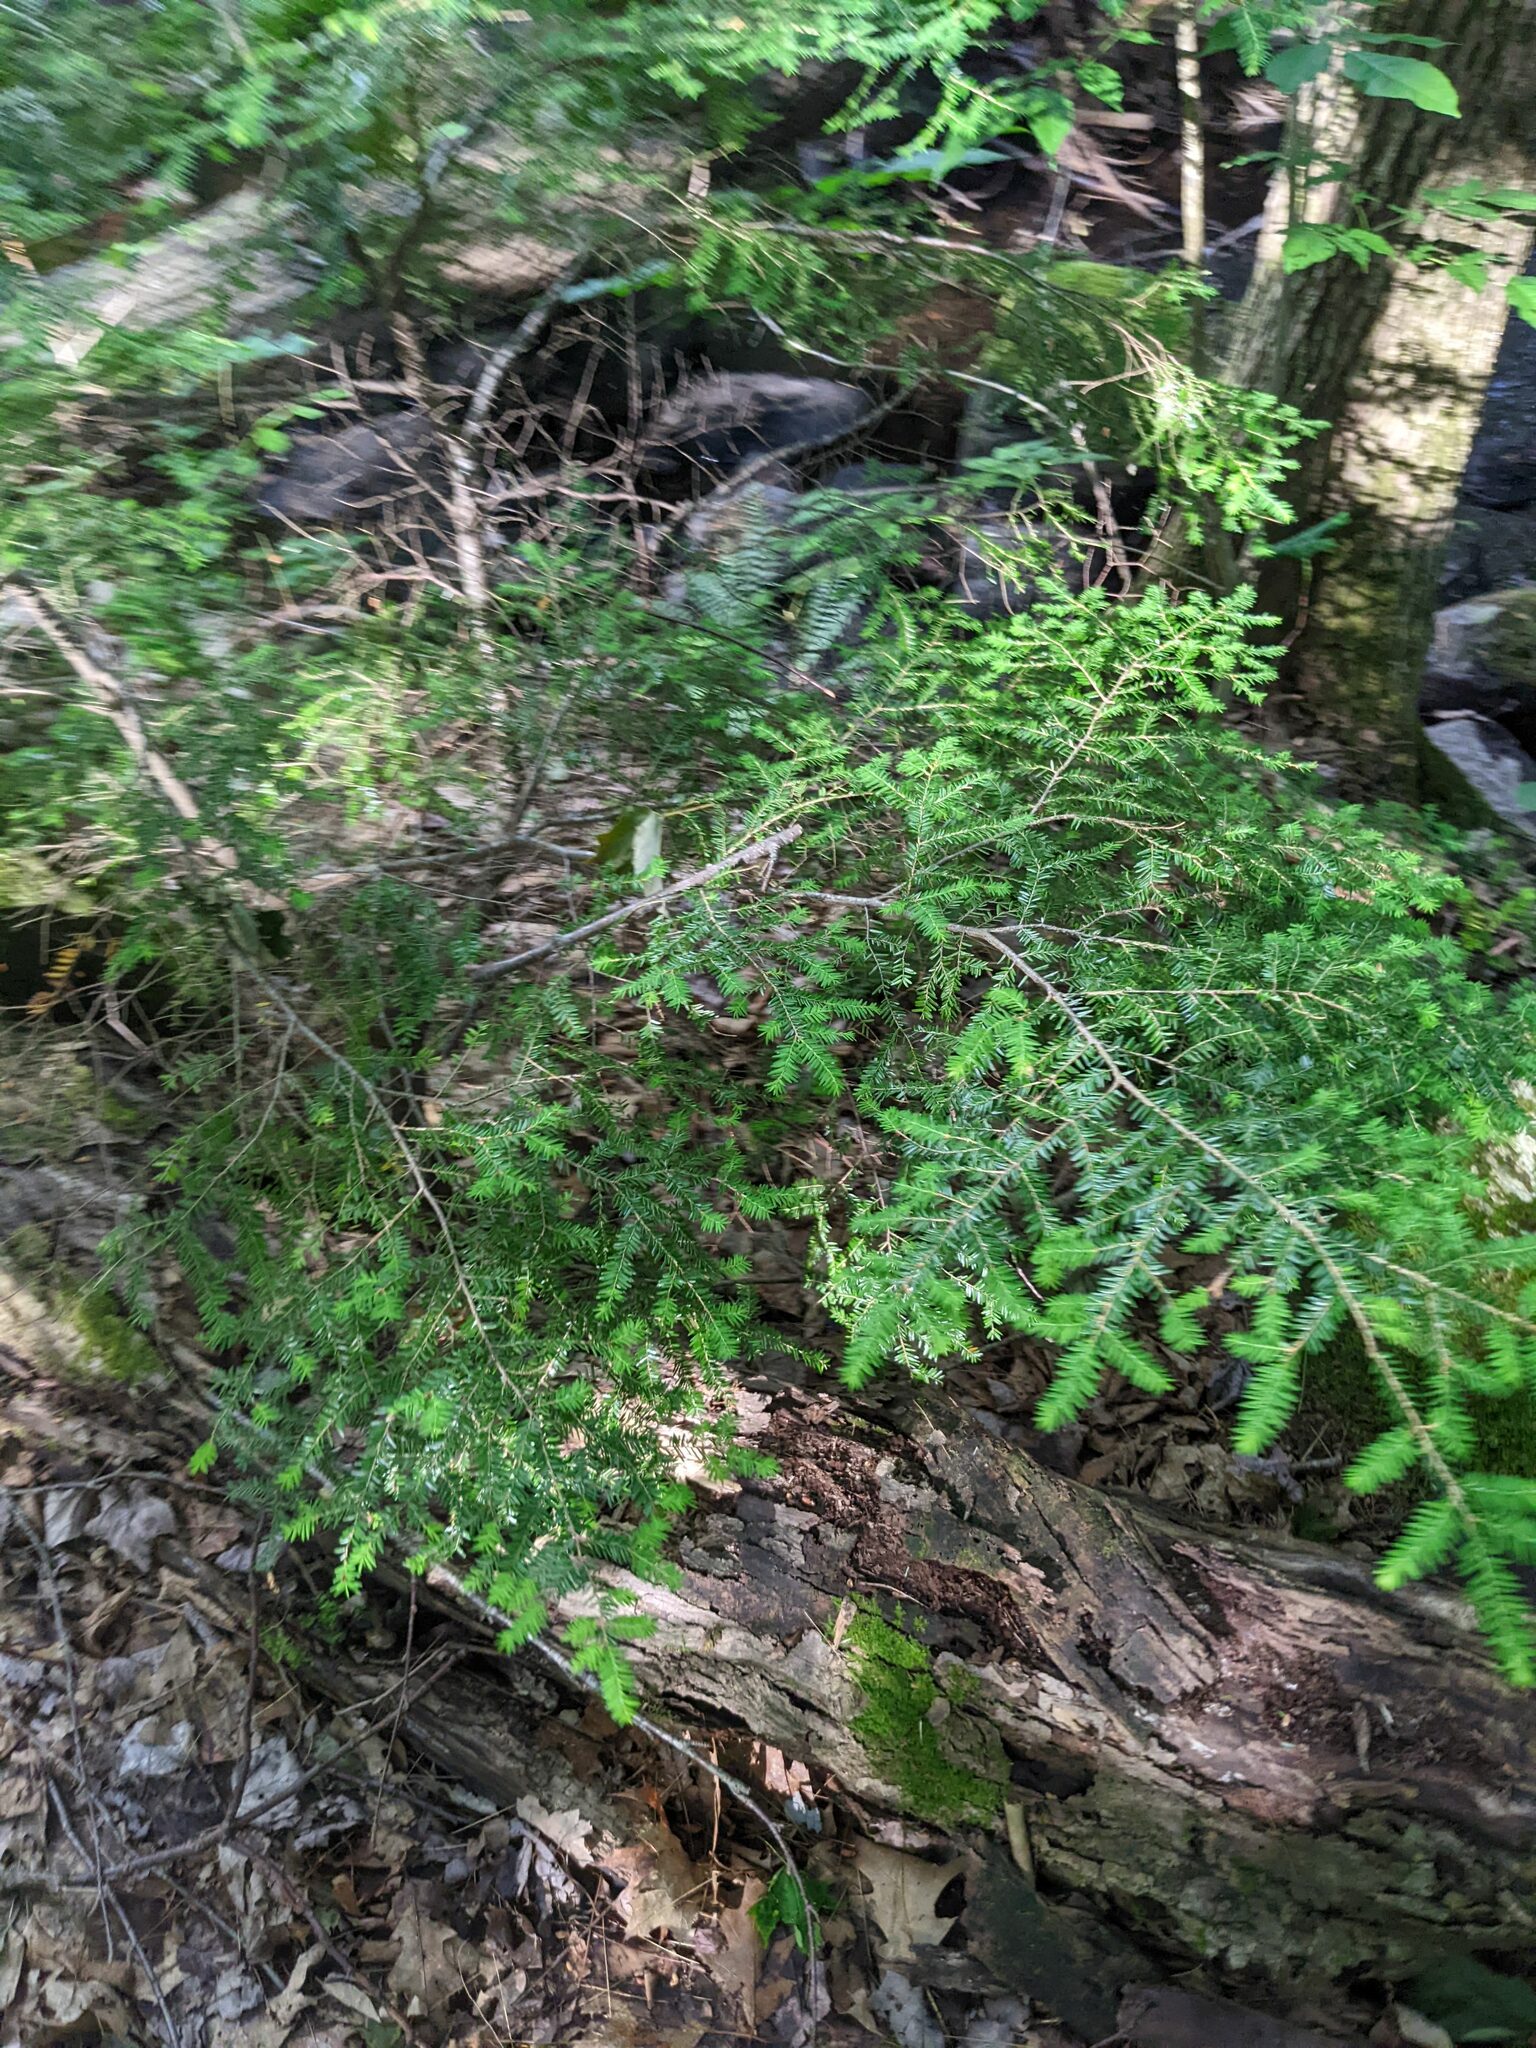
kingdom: Plantae
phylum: Tracheophyta
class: Pinopsida
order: Pinales
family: Pinaceae
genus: Tsuga
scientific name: Tsuga canadensis
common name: Eastern hemlock
